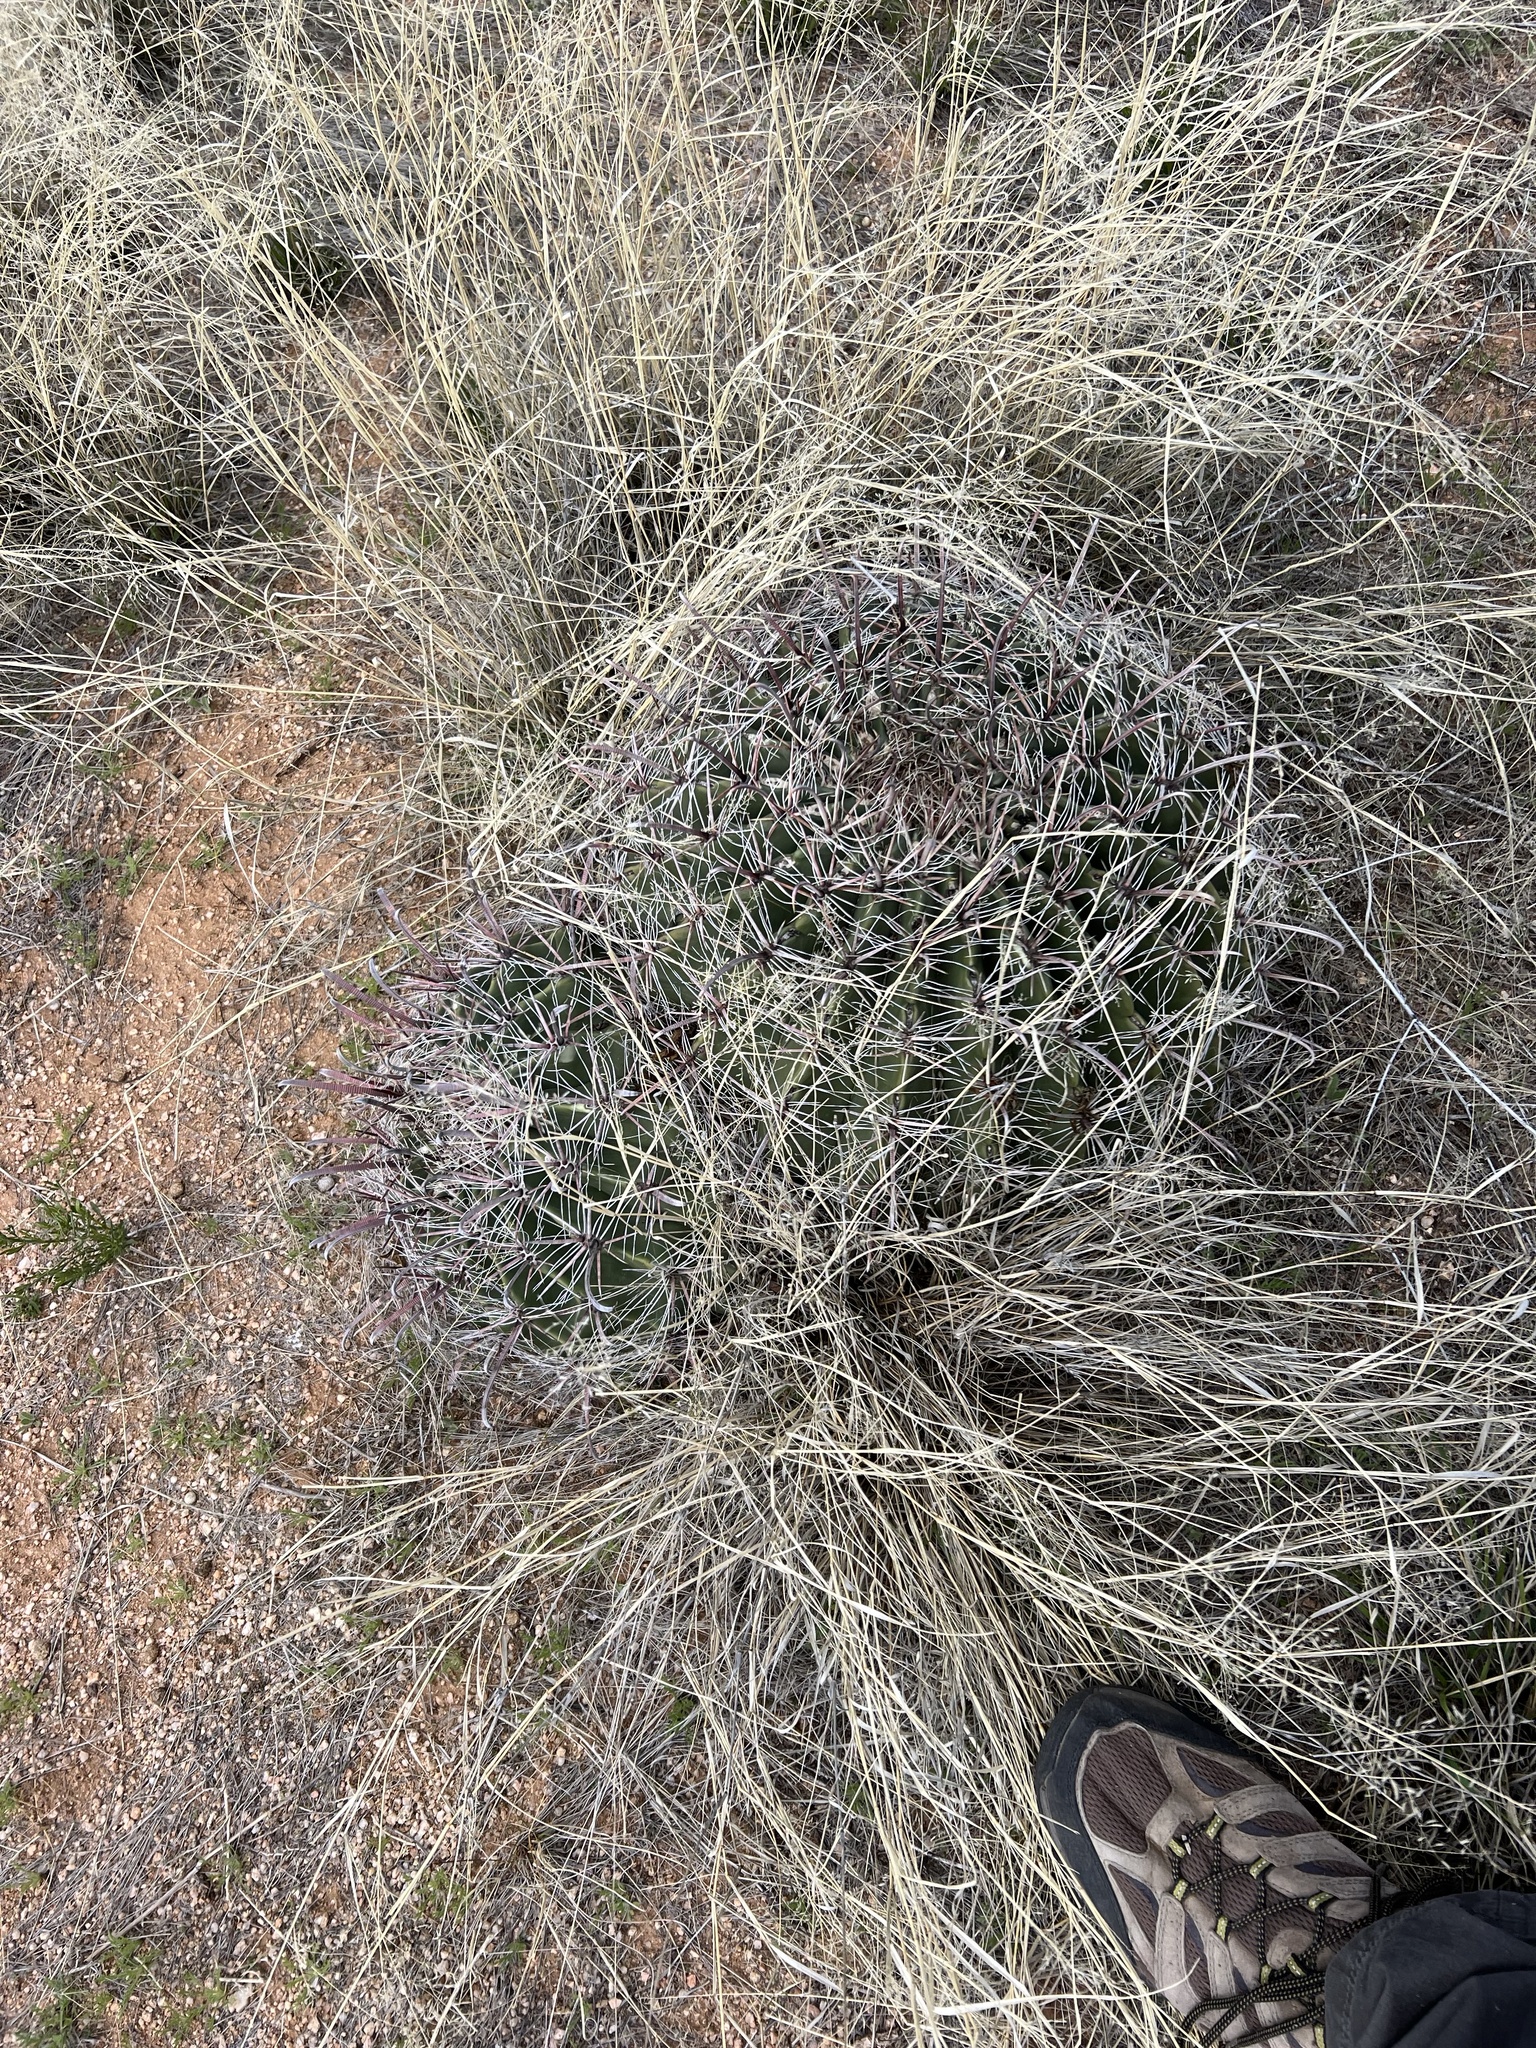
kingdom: Plantae
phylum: Tracheophyta
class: Magnoliopsida
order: Caryophyllales
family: Cactaceae
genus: Ferocactus
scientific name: Ferocactus wislizeni
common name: Candy barrel cactus
